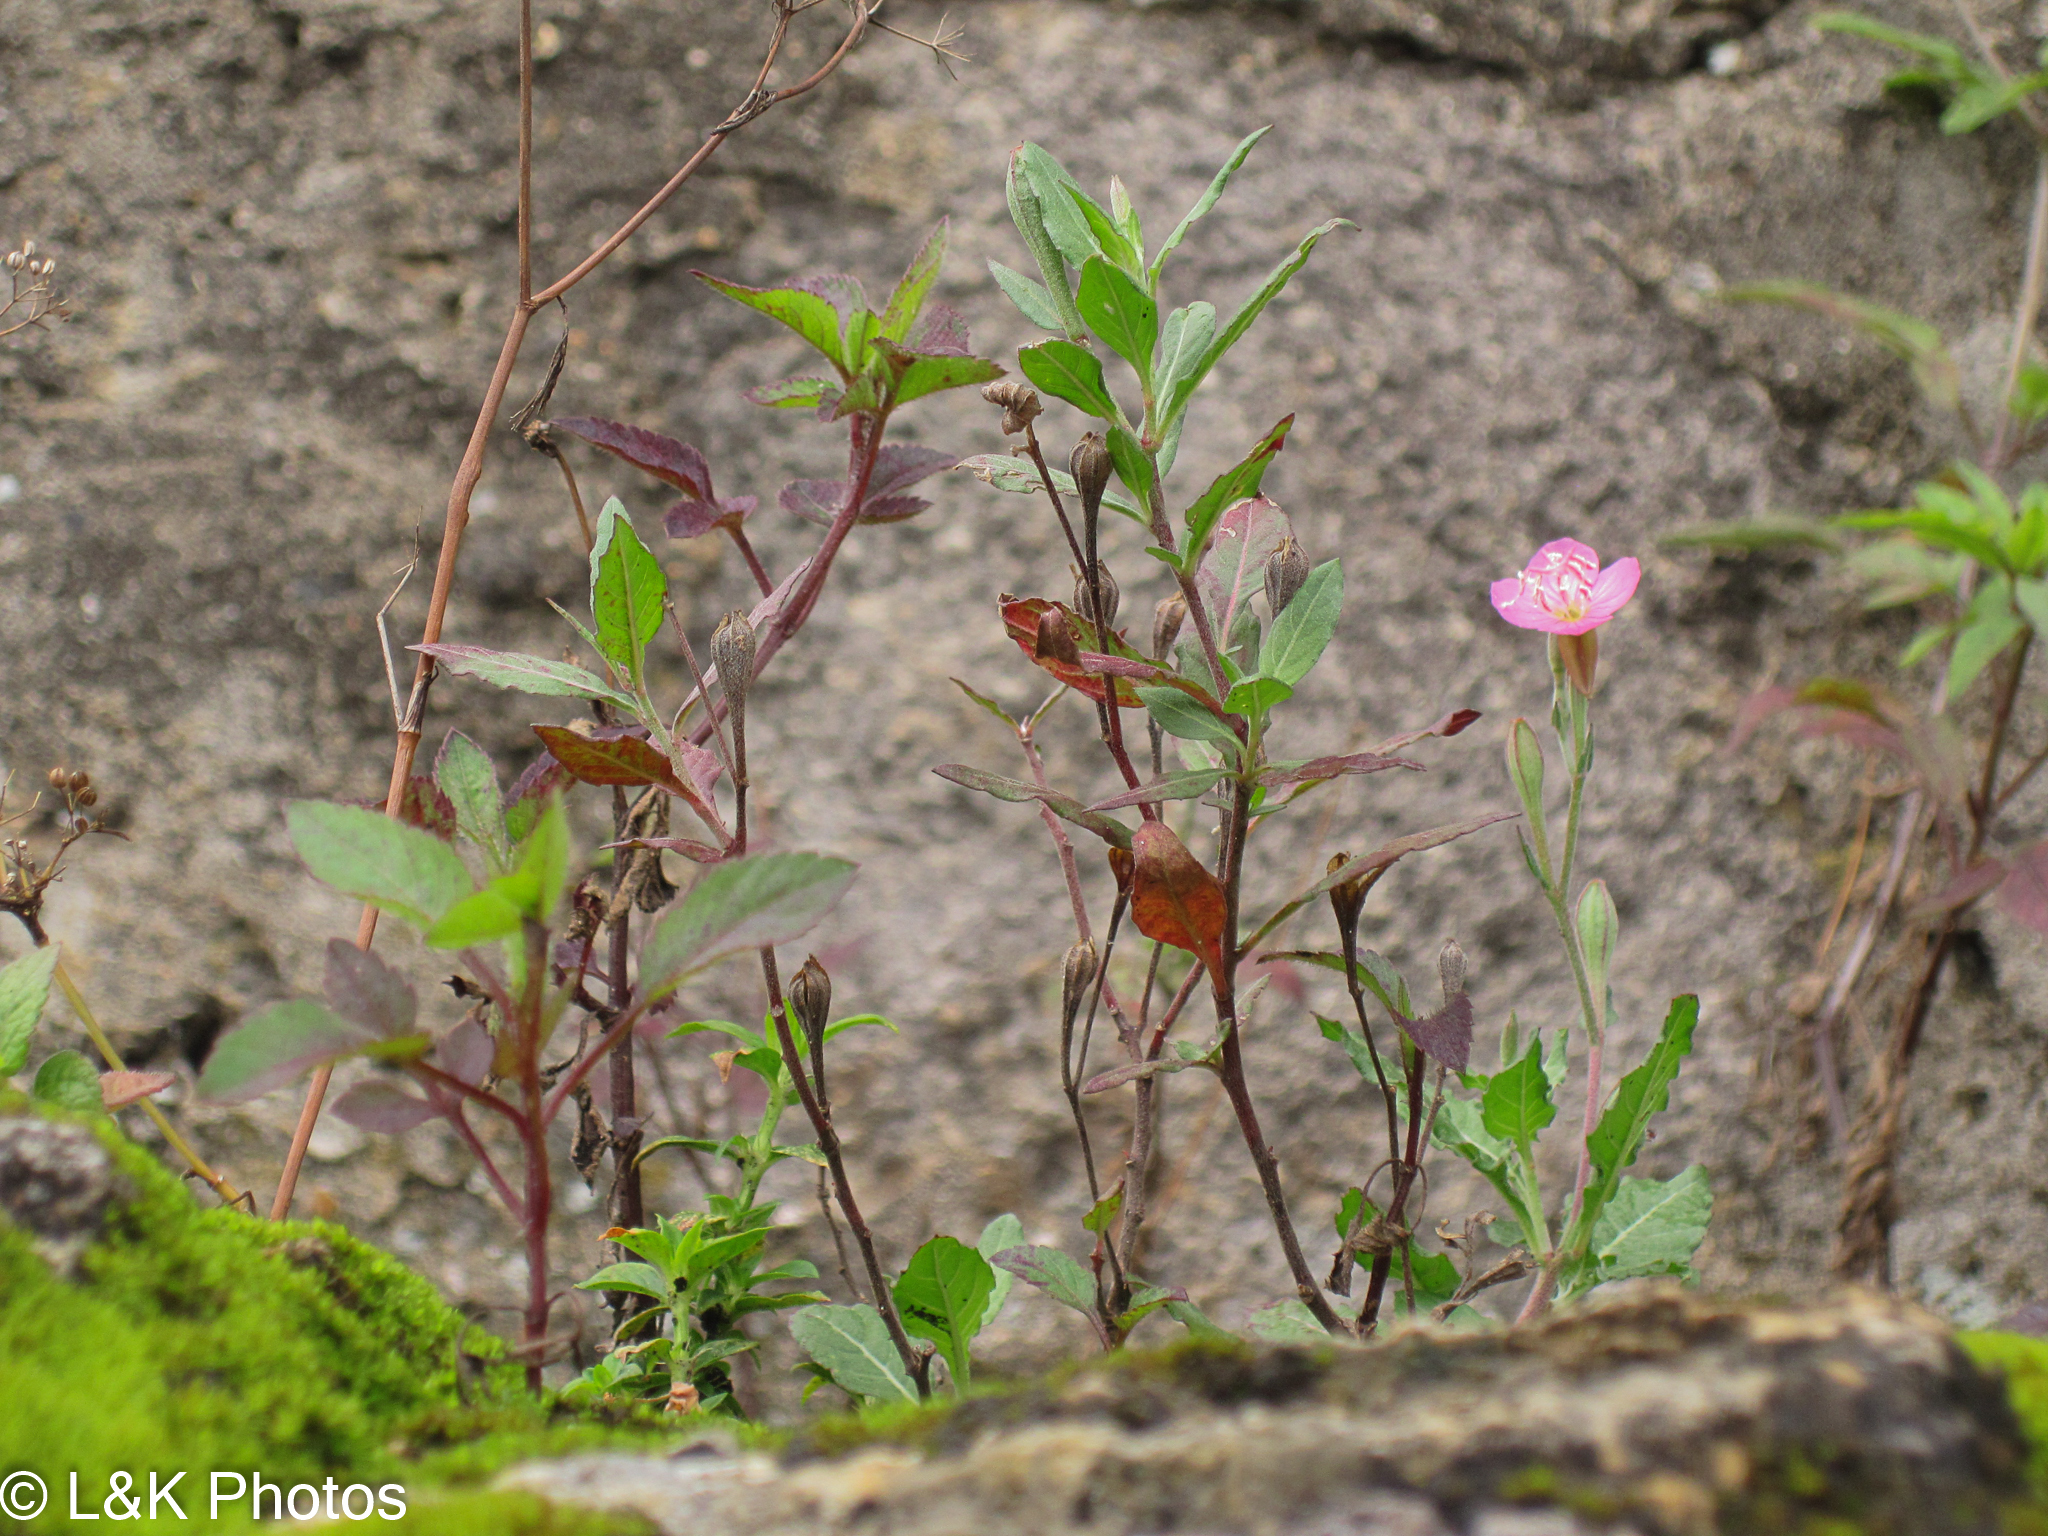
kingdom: Plantae
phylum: Tracheophyta
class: Magnoliopsida
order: Myrtales
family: Onagraceae
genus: Oenothera
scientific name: Oenothera rosea
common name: Rosy evening-primrose
